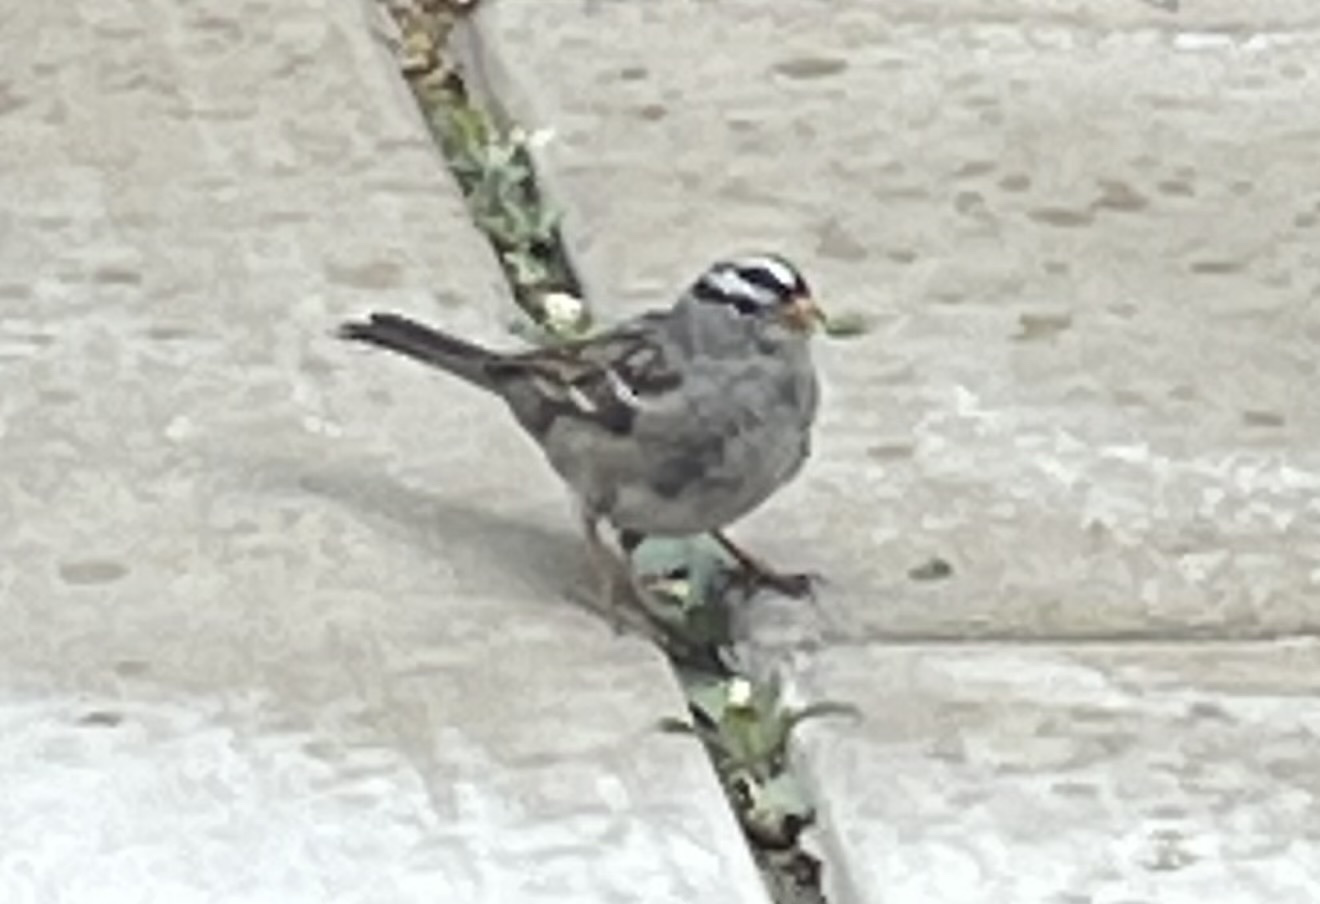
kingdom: Animalia
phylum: Chordata
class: Aves
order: Passeriformes
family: Passerellidae
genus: Zonotrichia
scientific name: Zonotrichia leucophrys
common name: White-crowned sparrow
